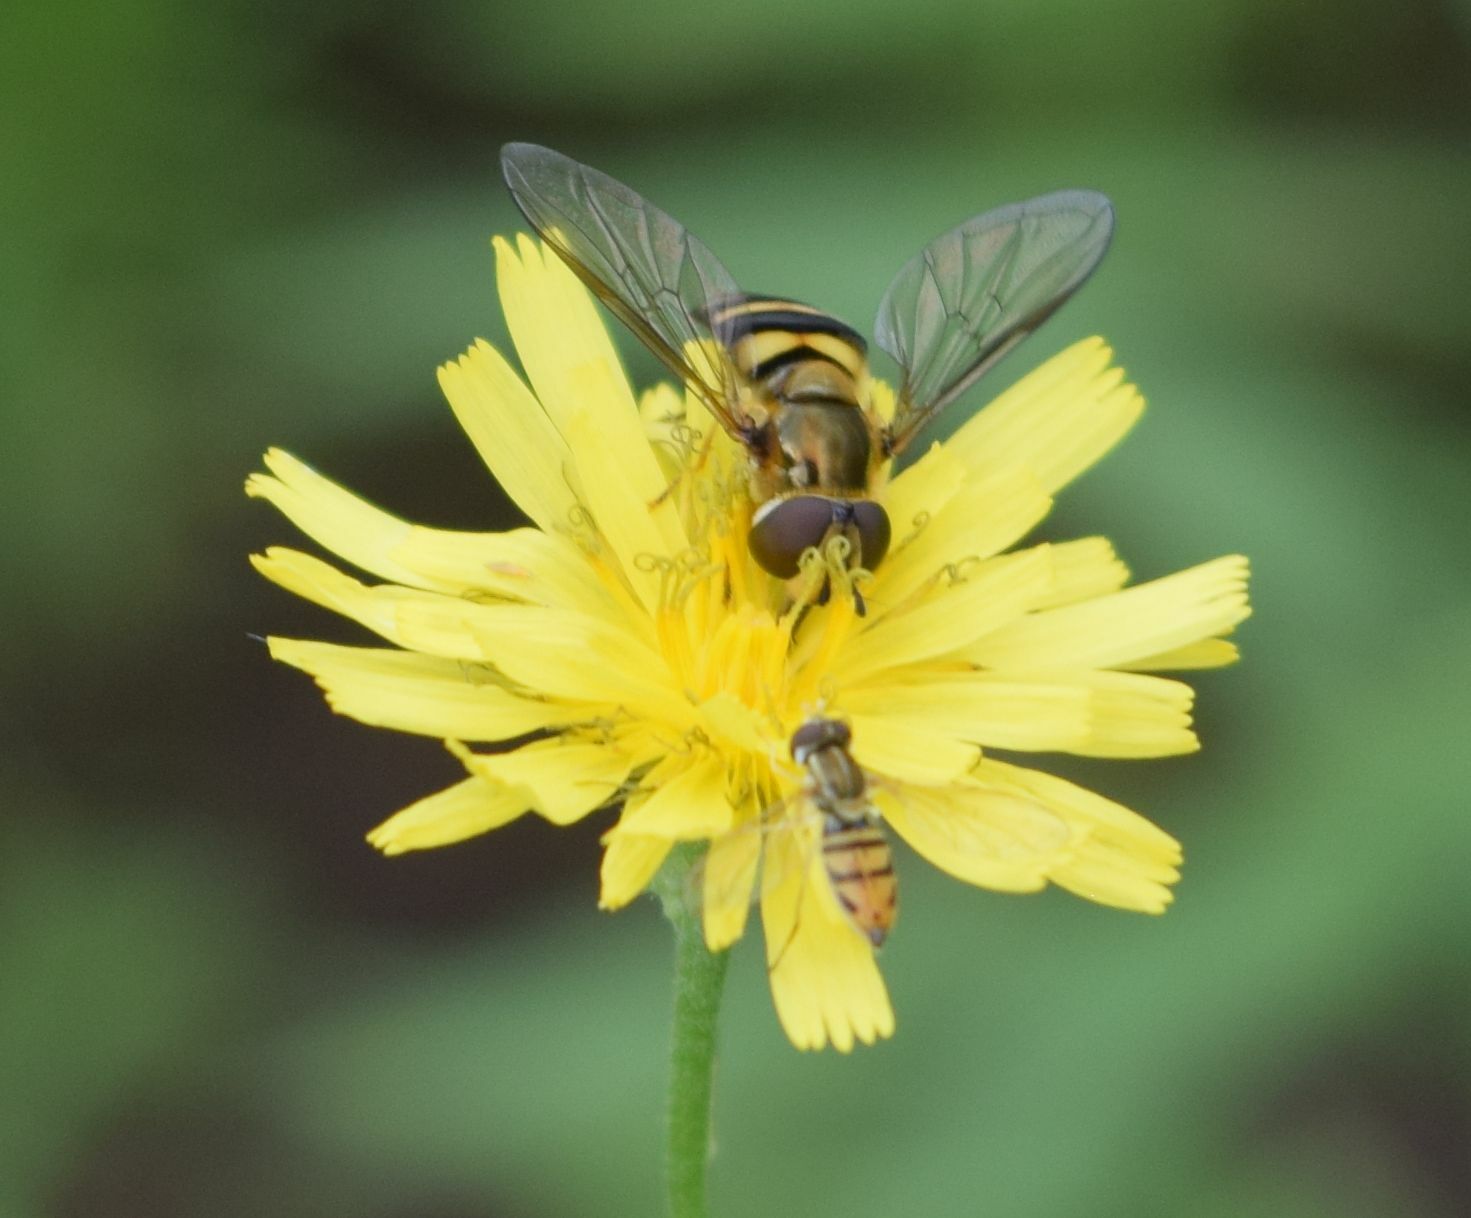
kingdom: Animalia
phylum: Arthropoda
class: Insecta
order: Diptera
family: Syrphidae
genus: Toxomerus
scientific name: Toxomerus marginatus
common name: Syrphid fly
